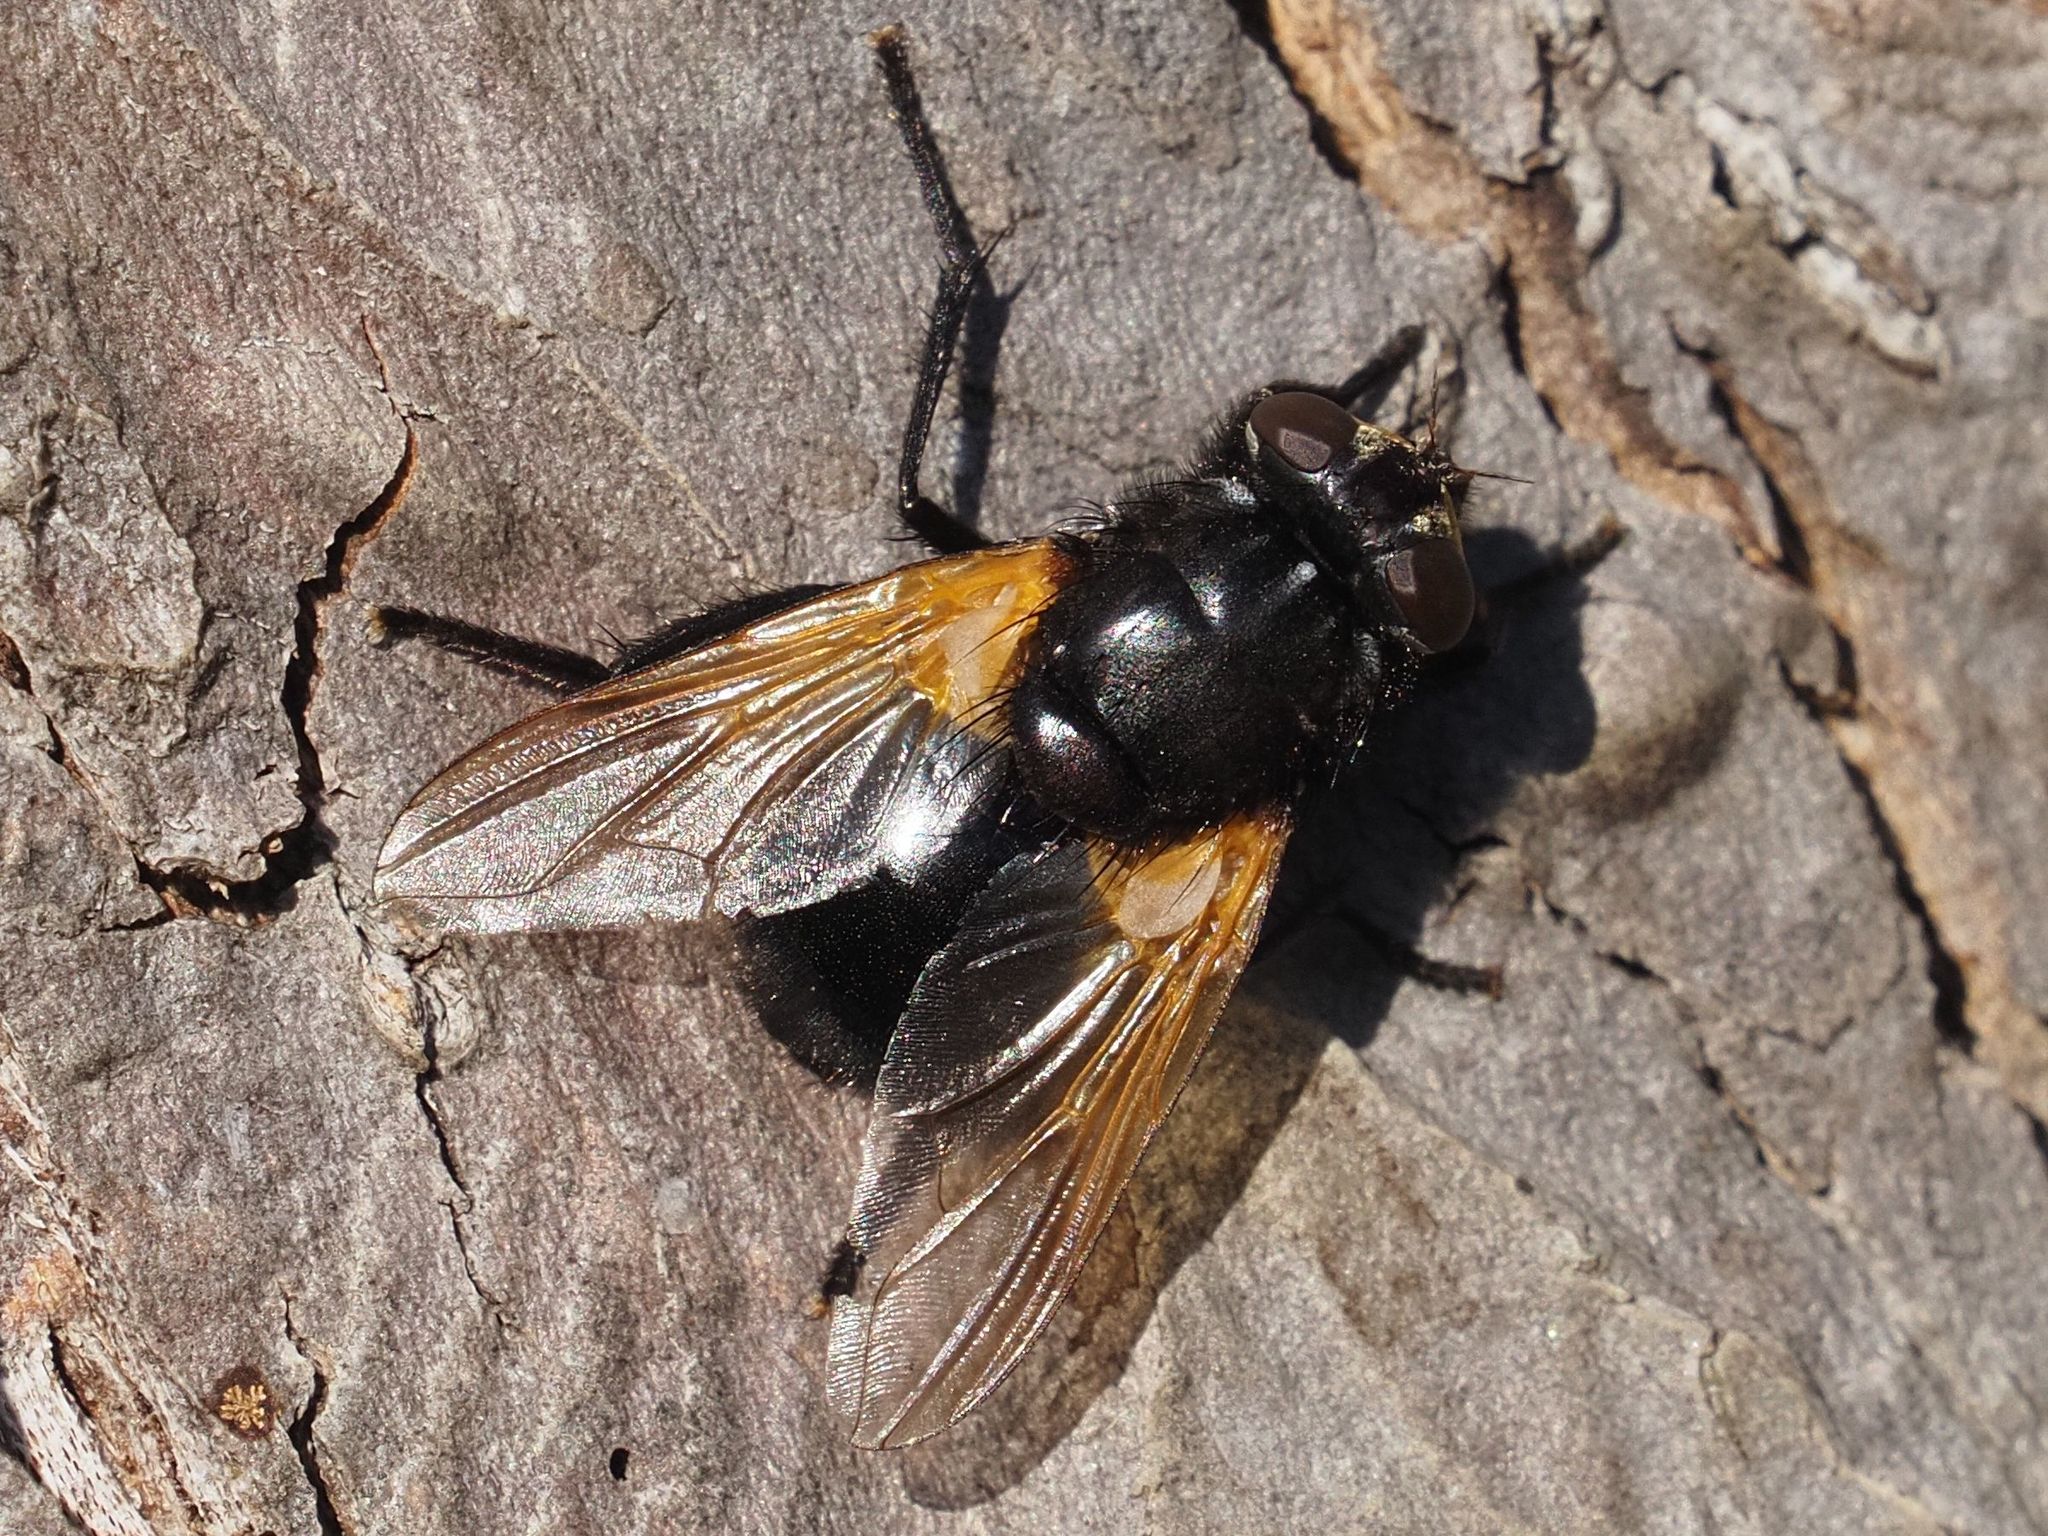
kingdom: Animalia
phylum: Arthropoda
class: Insecta
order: Diptera
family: Muscidae
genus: Mesembrina
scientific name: Mesembrina meridiana
